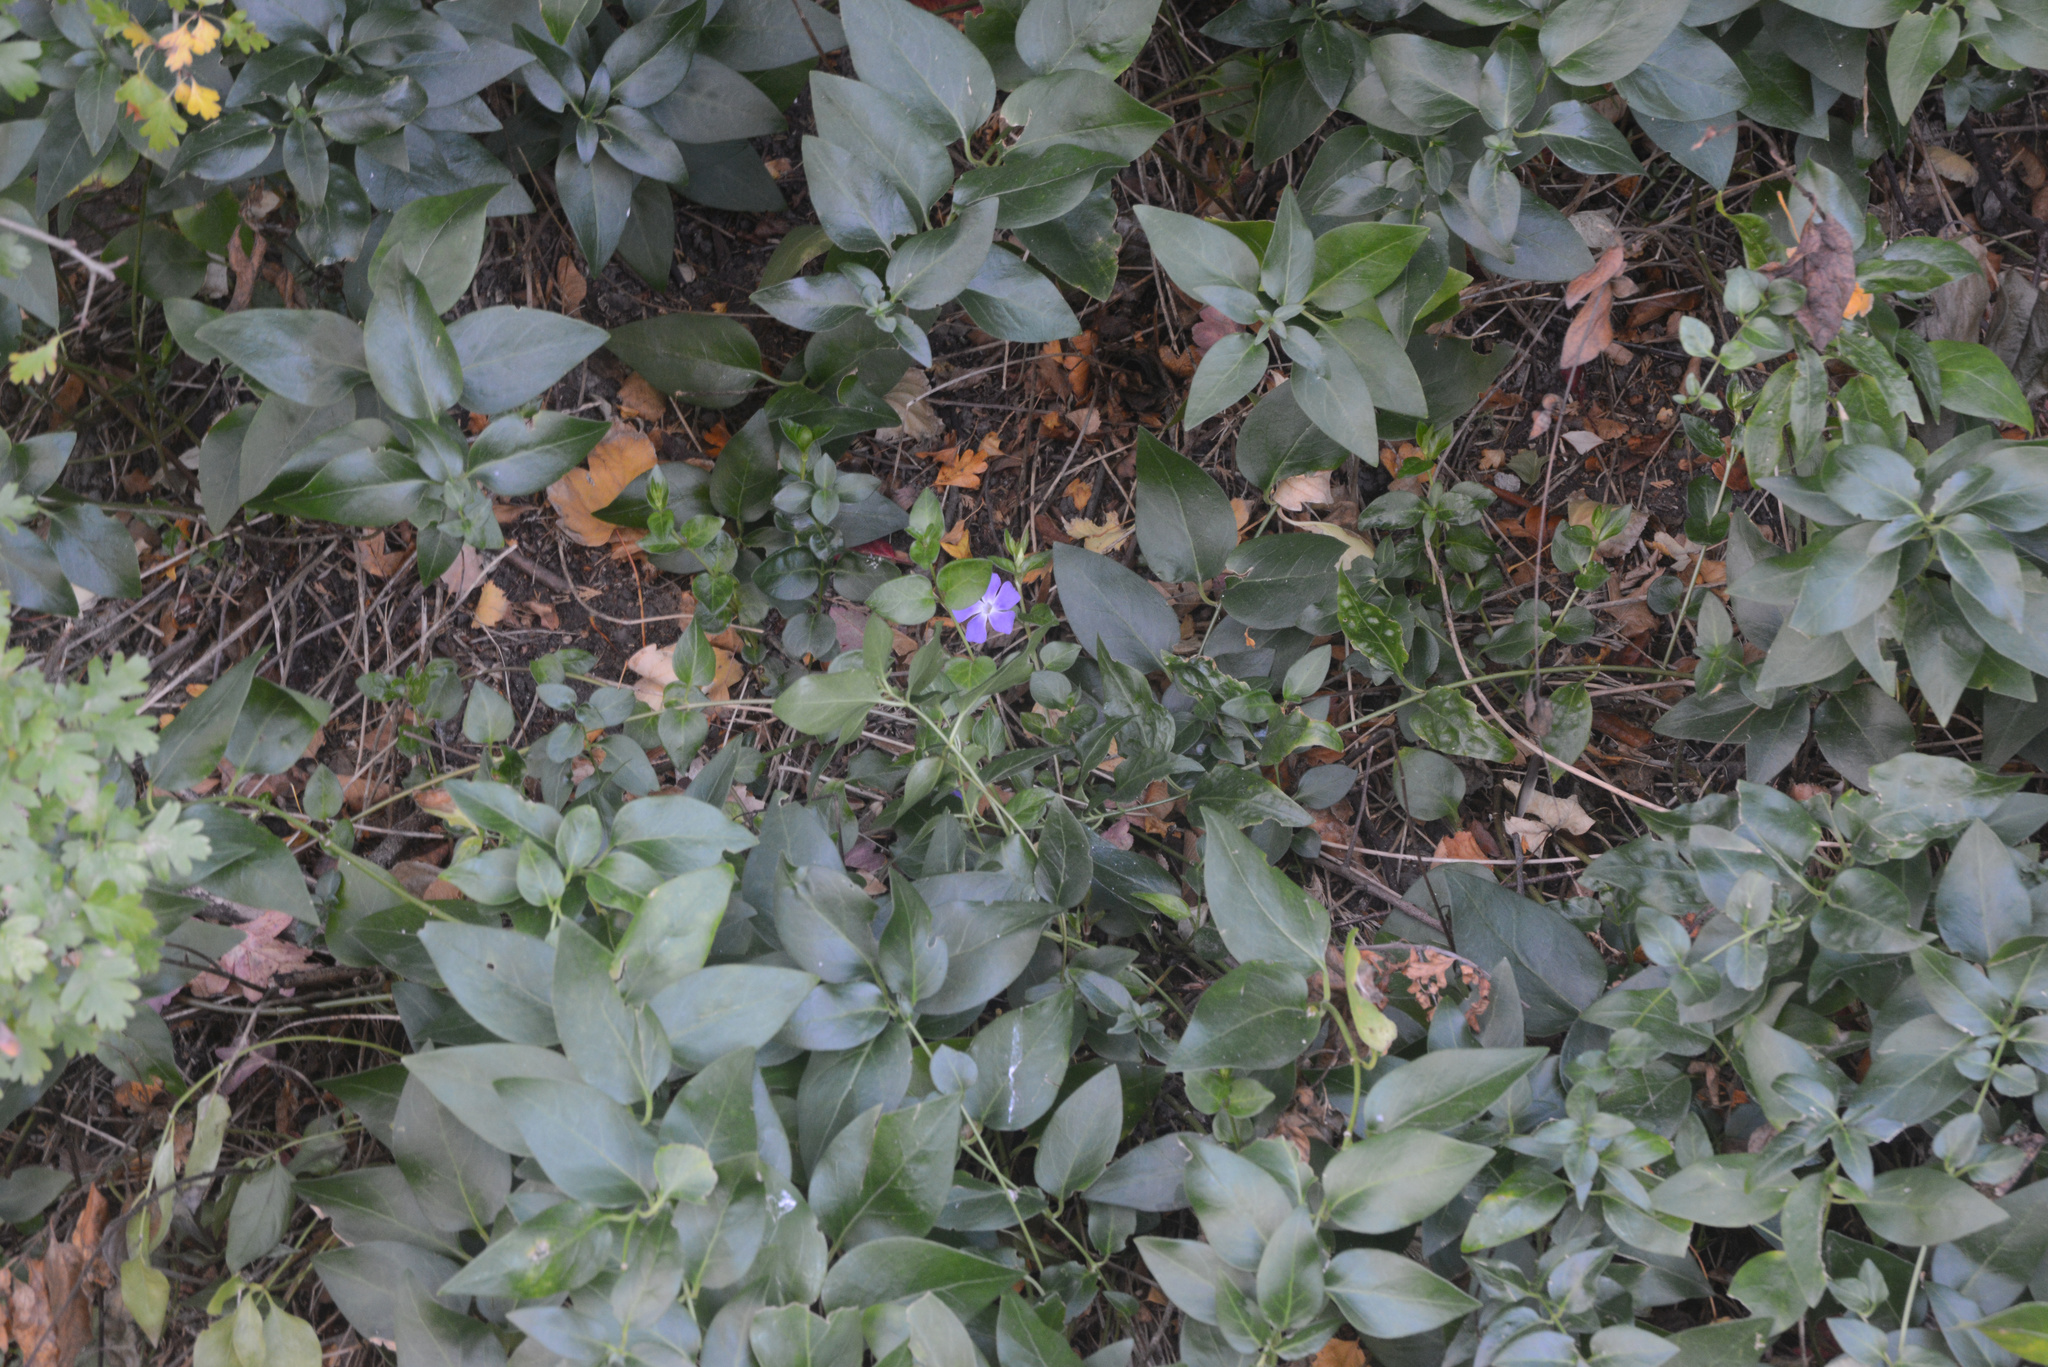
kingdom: Plantae
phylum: Tracheophyta
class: Magnoliopsida
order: Gentianales
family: Apocynaceae
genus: Vinca
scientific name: Vinca major
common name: Greater periwinkle
